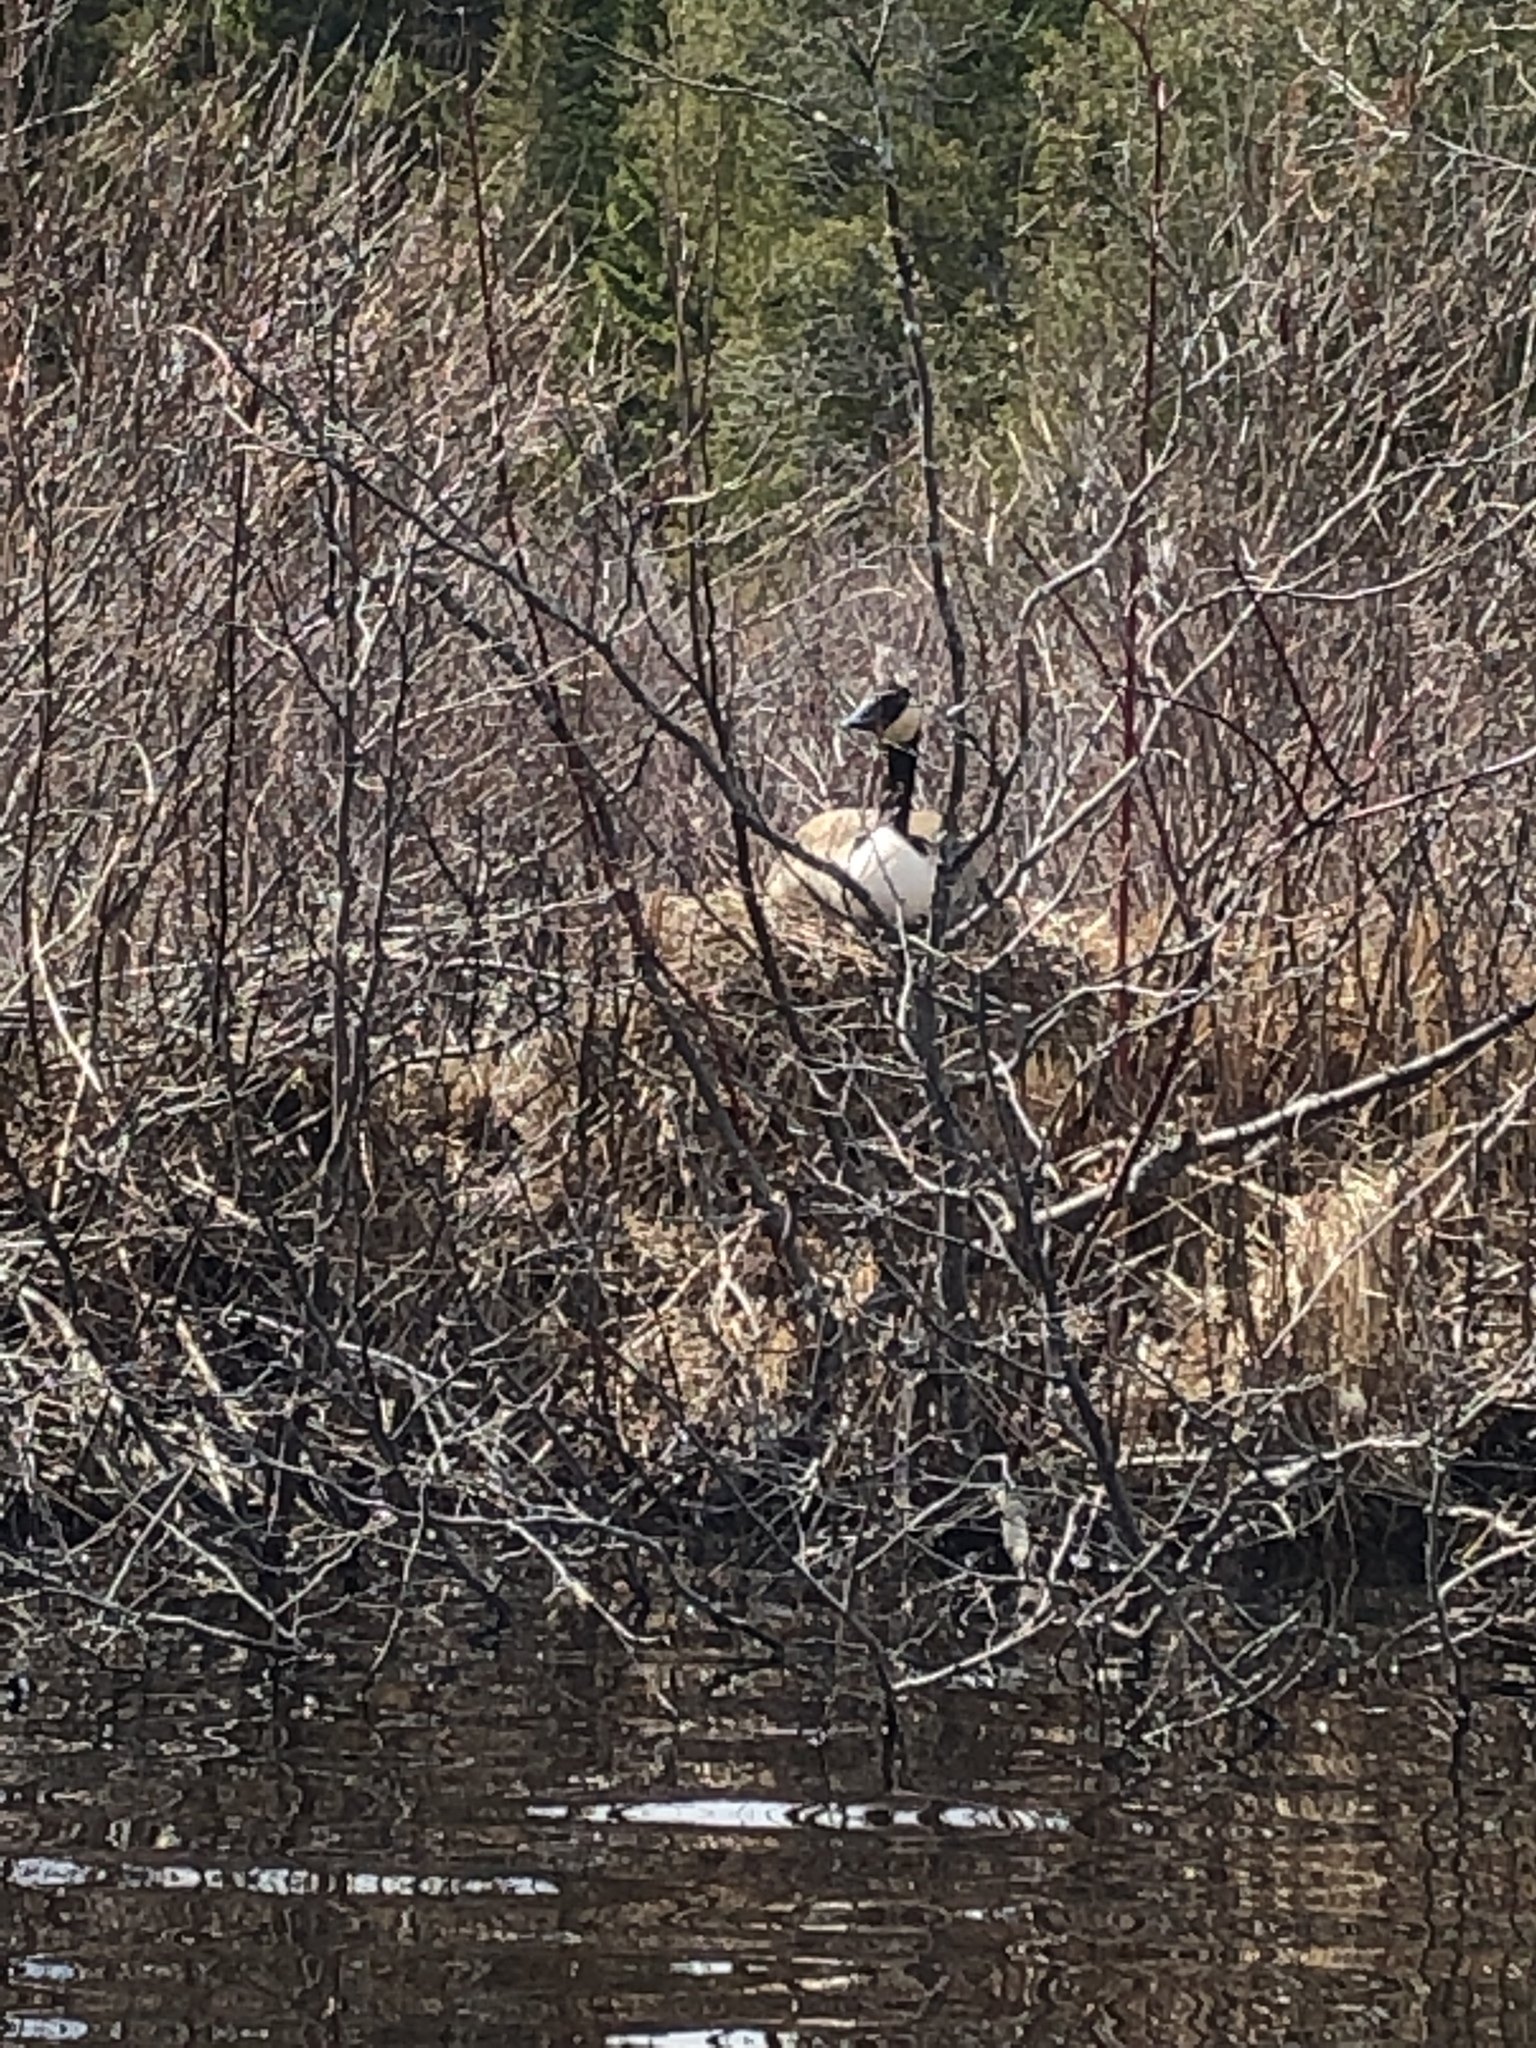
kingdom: Animalia
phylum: Chordata
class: Aves
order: Anseriformes
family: Anatidae
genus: Branta
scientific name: Branta canadensis
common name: Canada goose
